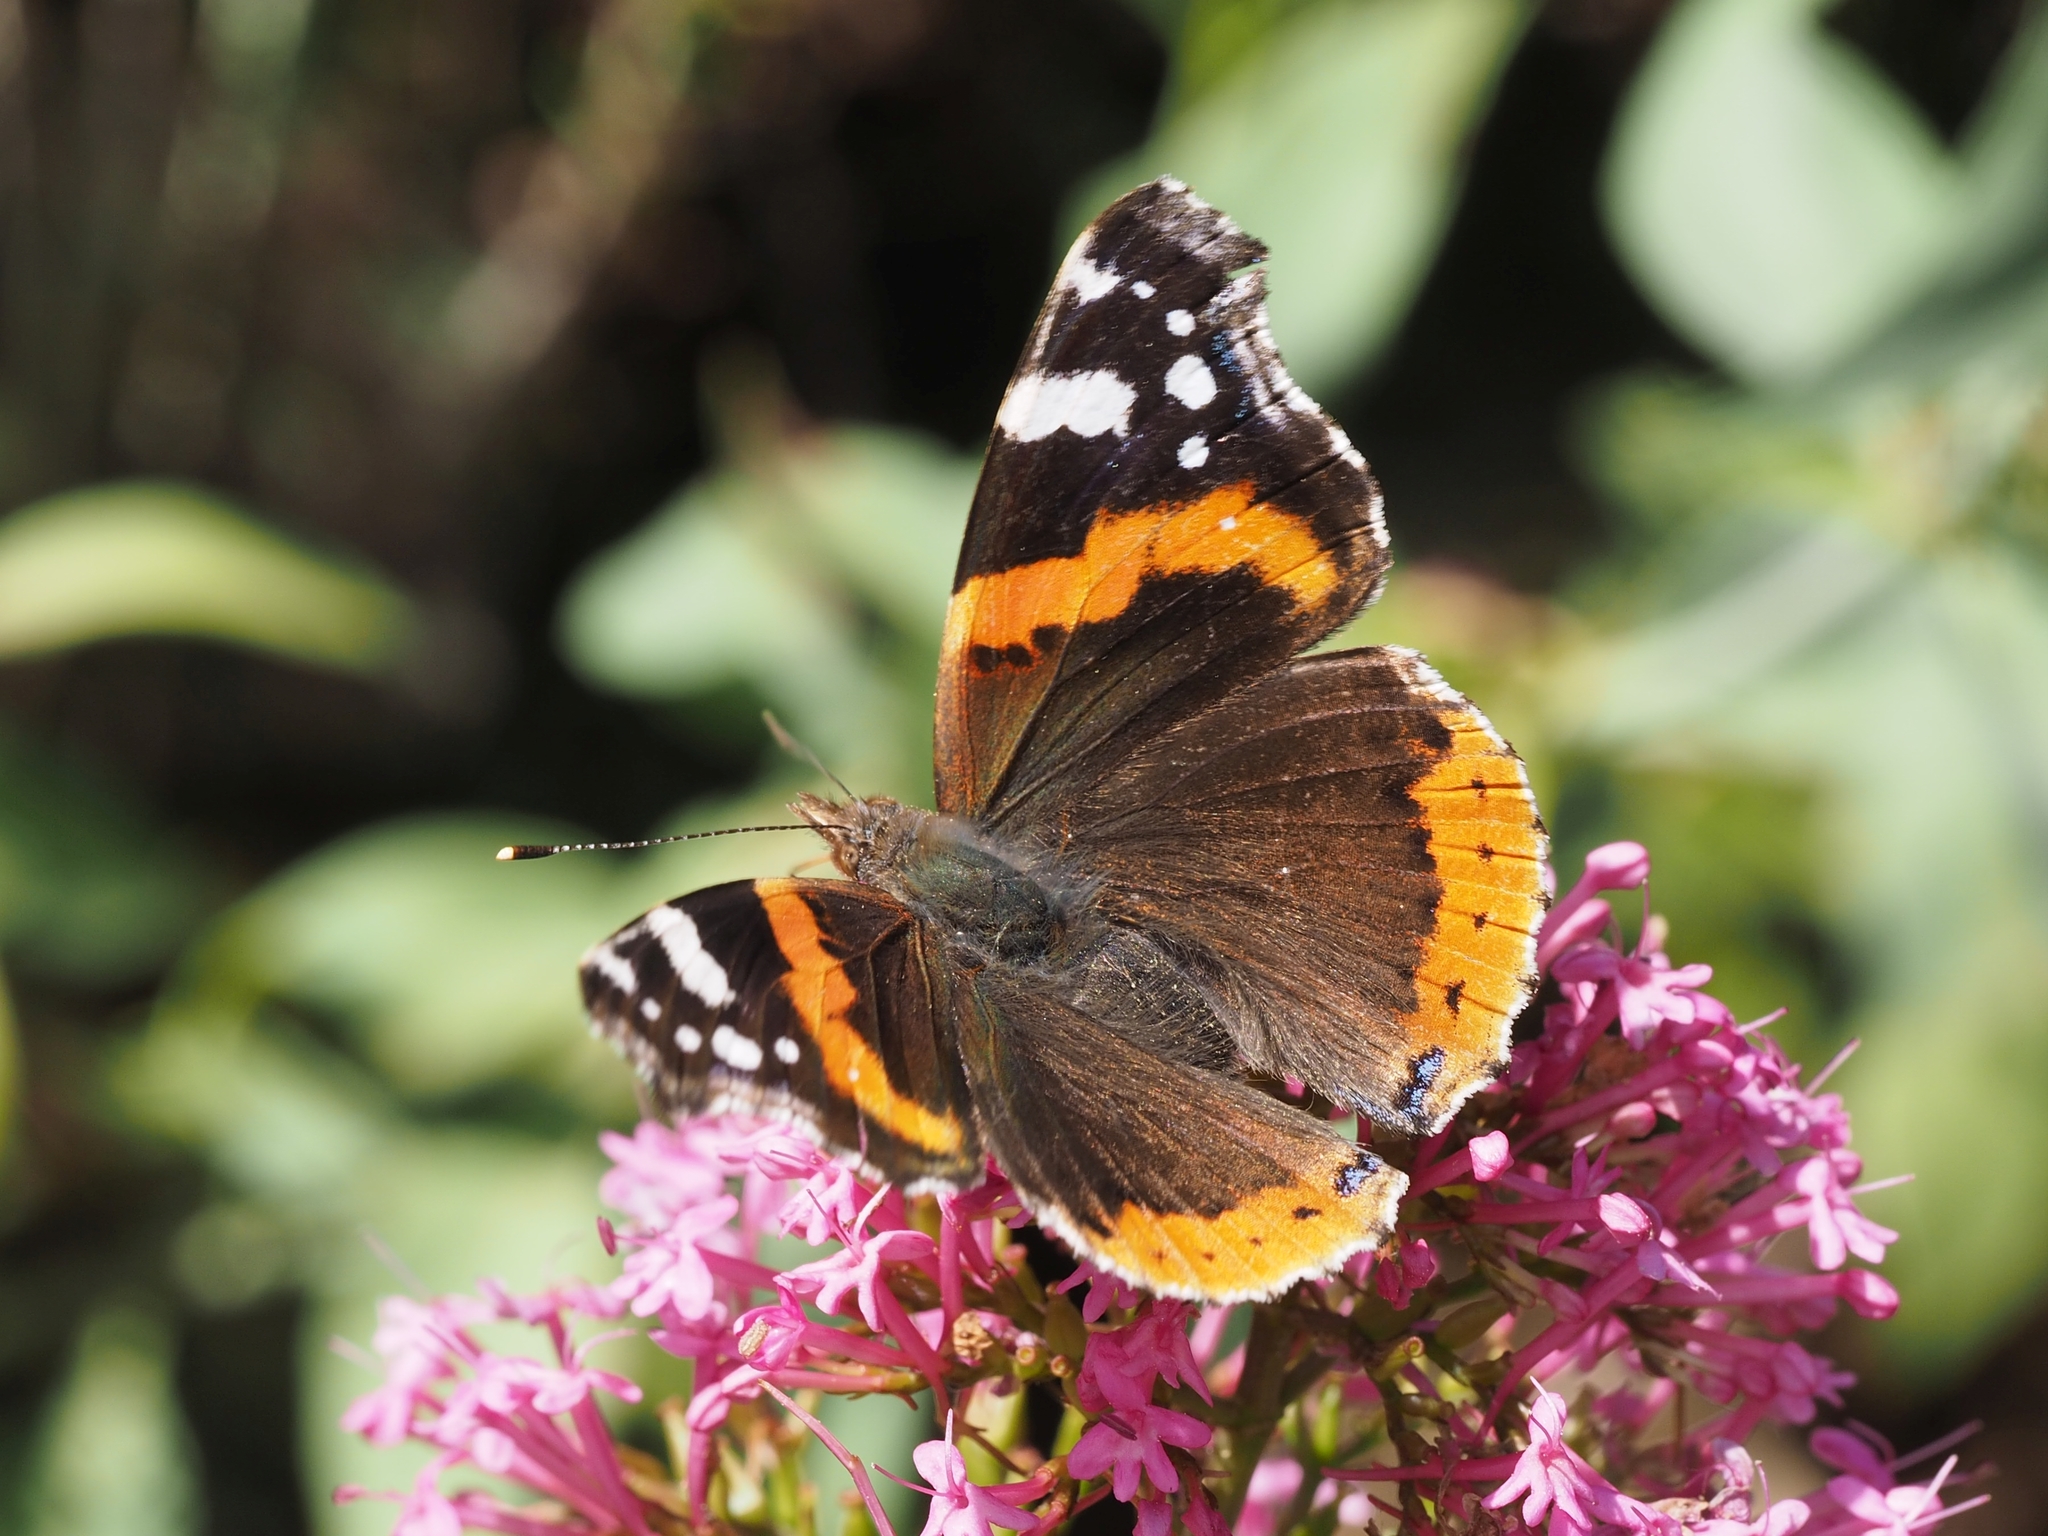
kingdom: Animalia
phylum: Arthropoda
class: Insecta
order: Lepidoptera
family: Nymphalidae
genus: Vanessa
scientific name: Vanessa atalanta
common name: Red admiral
